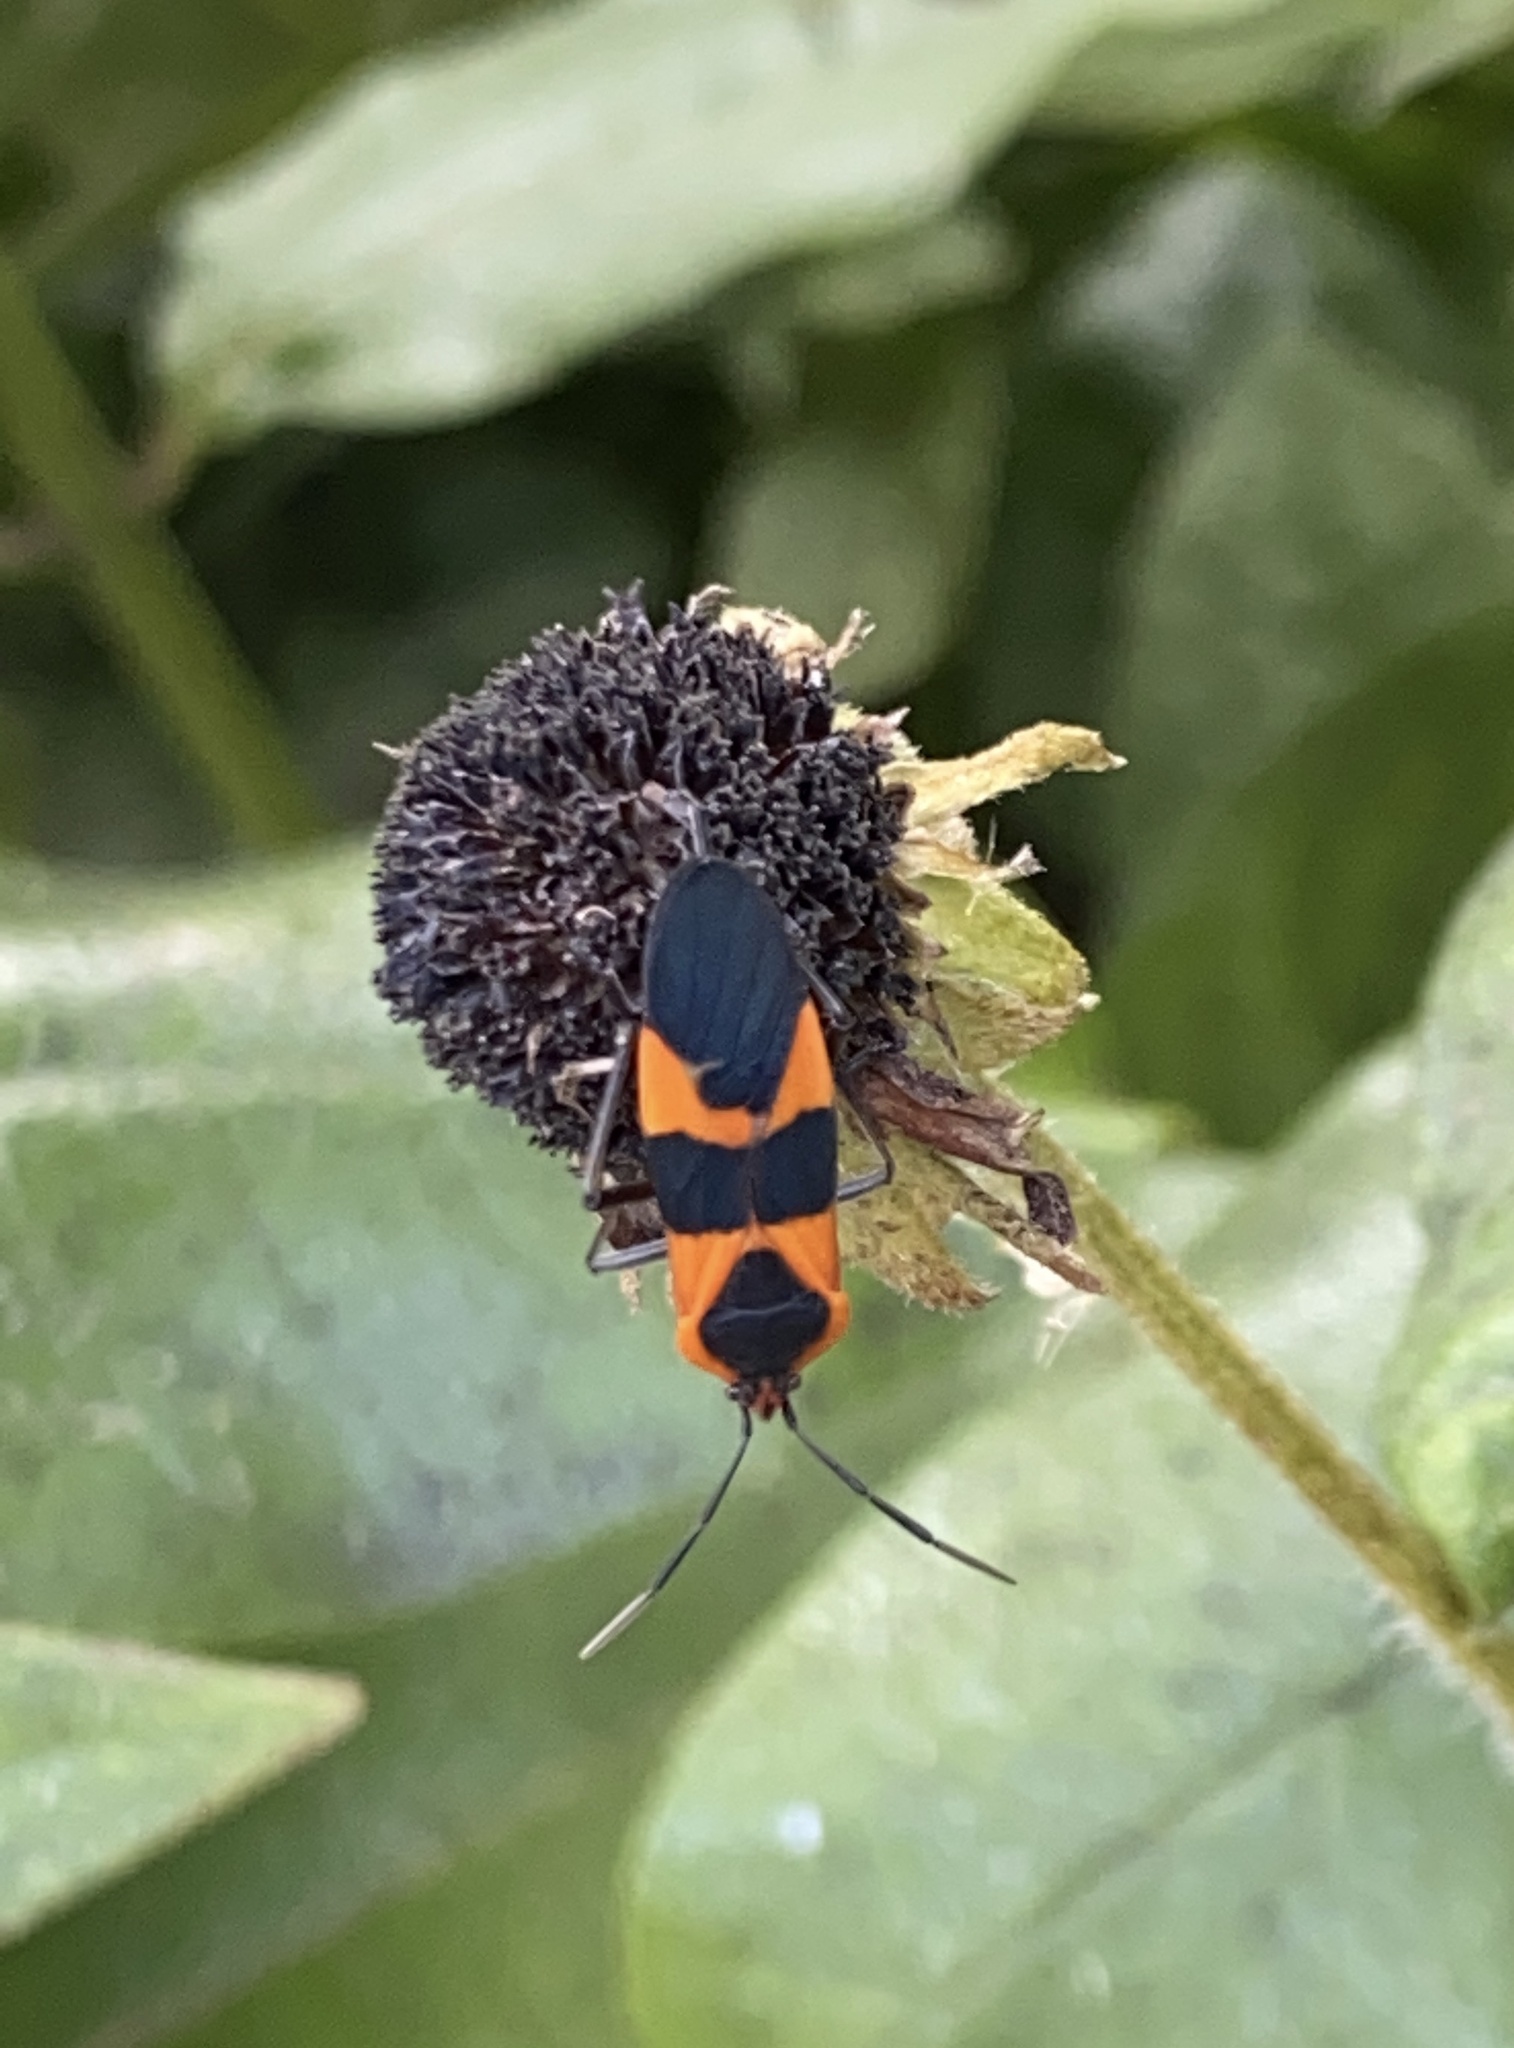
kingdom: Animalia
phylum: Arthropoda
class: Insecta
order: Hemiptera
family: Lygaeidae
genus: Oncopeltus
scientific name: Oncopeltus fasciatus
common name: Large milkweed bug
